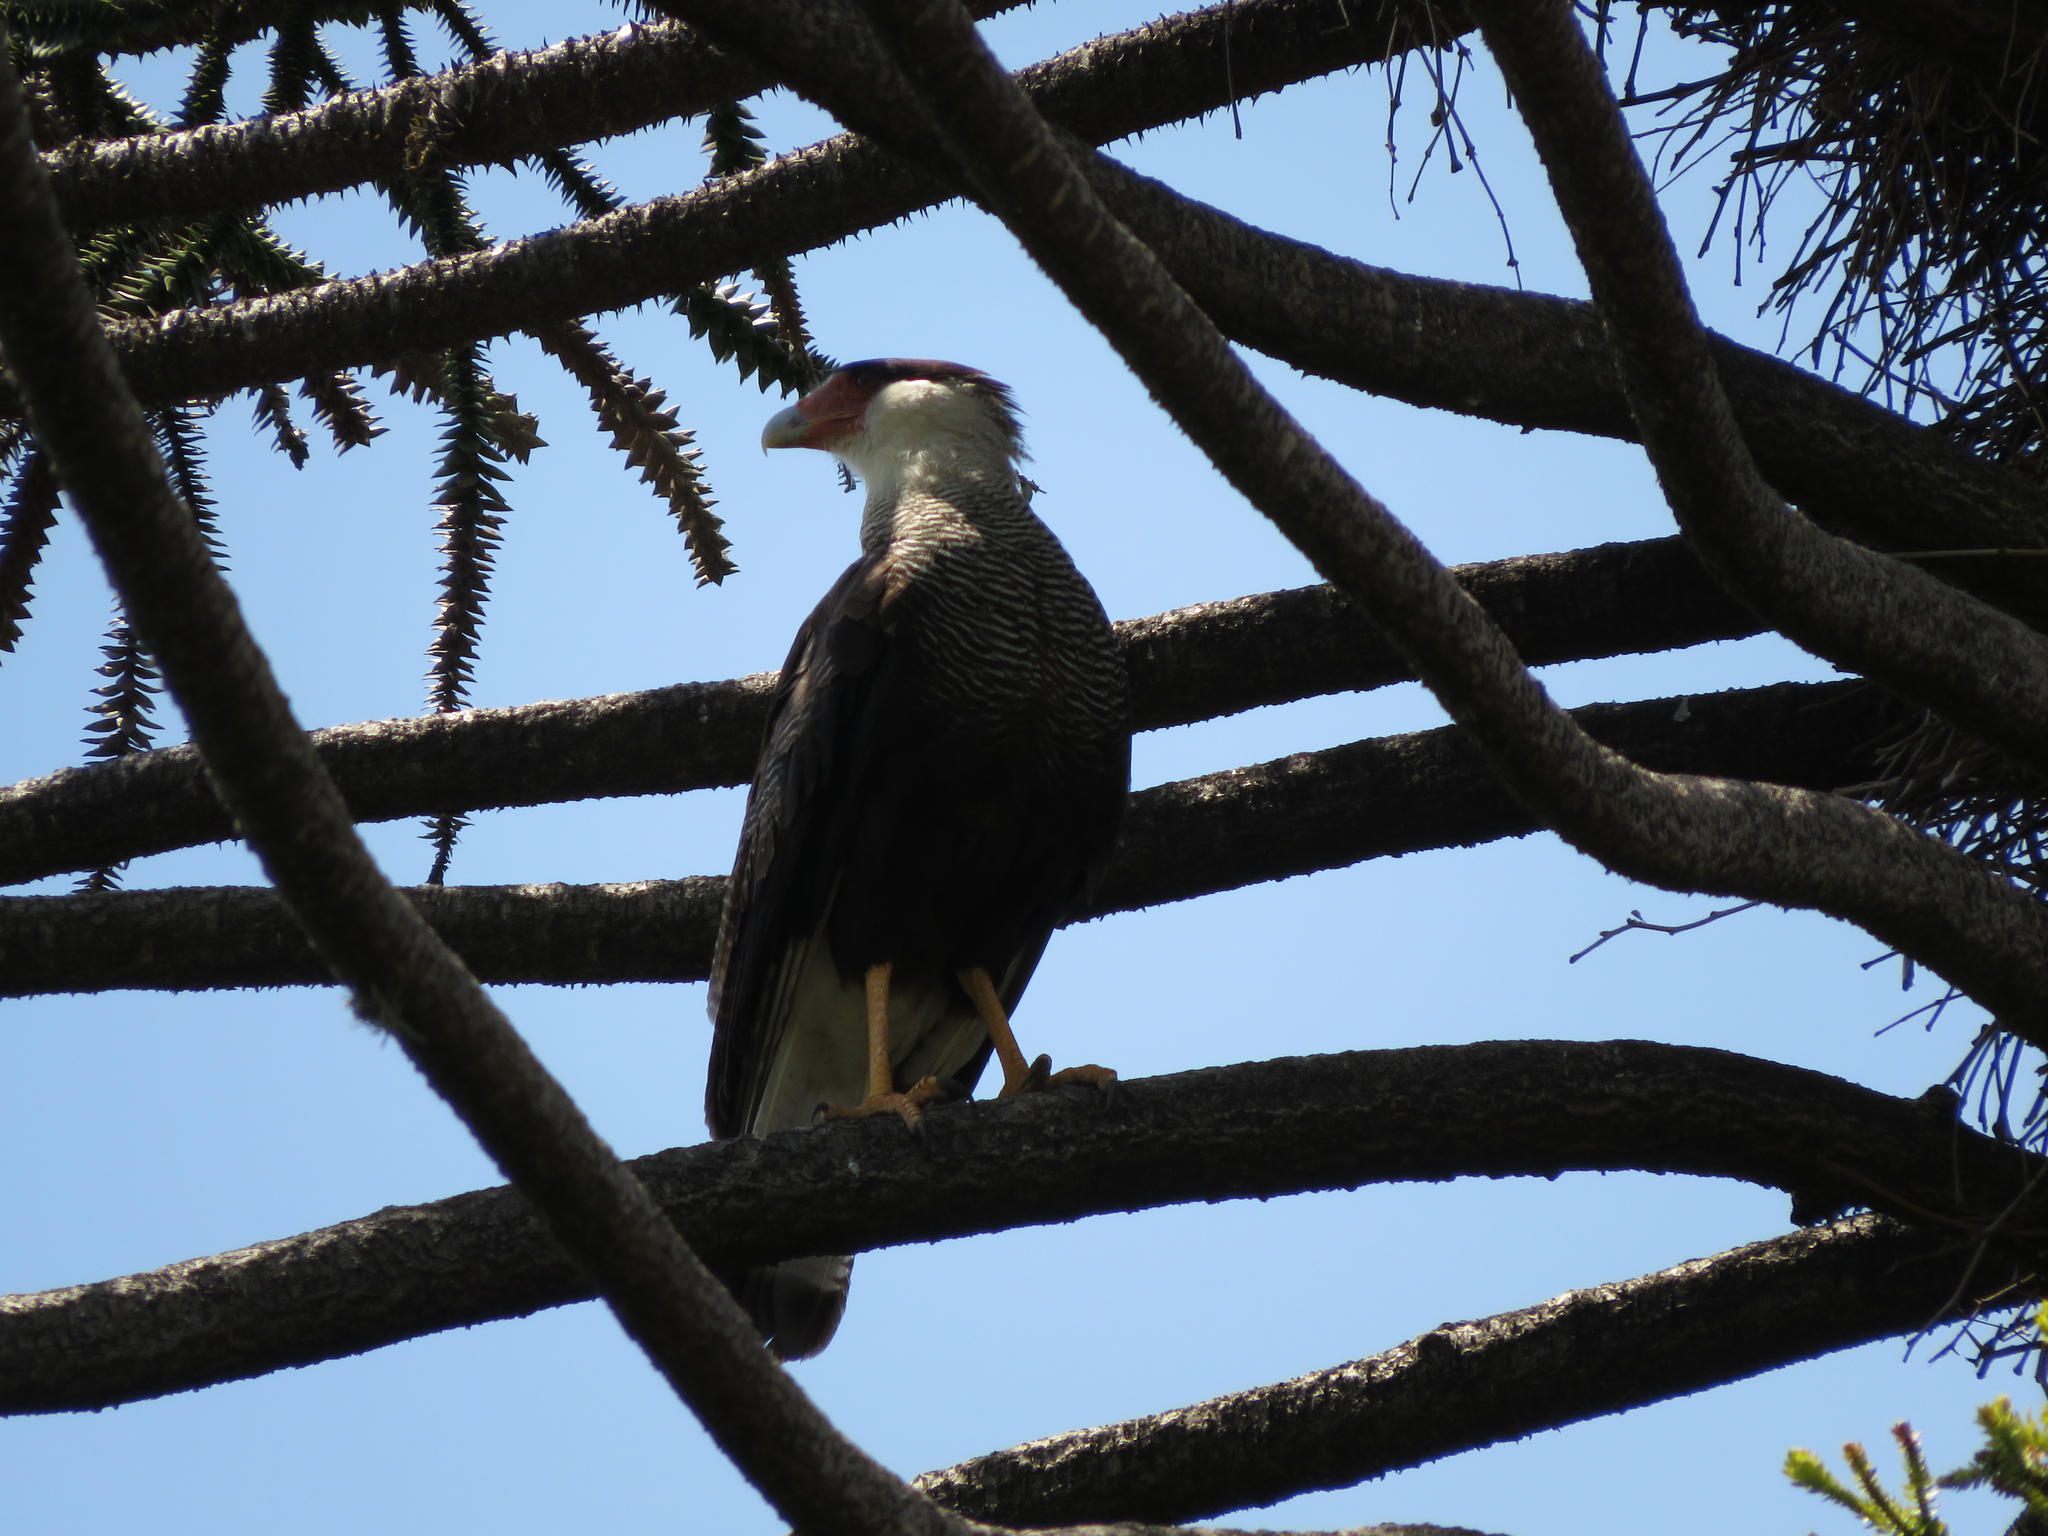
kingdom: Animalia
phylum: Chordata
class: Aves
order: Falconiformes
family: Falconidae
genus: Caracara
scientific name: Caracara plancus
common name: Southern caracara
